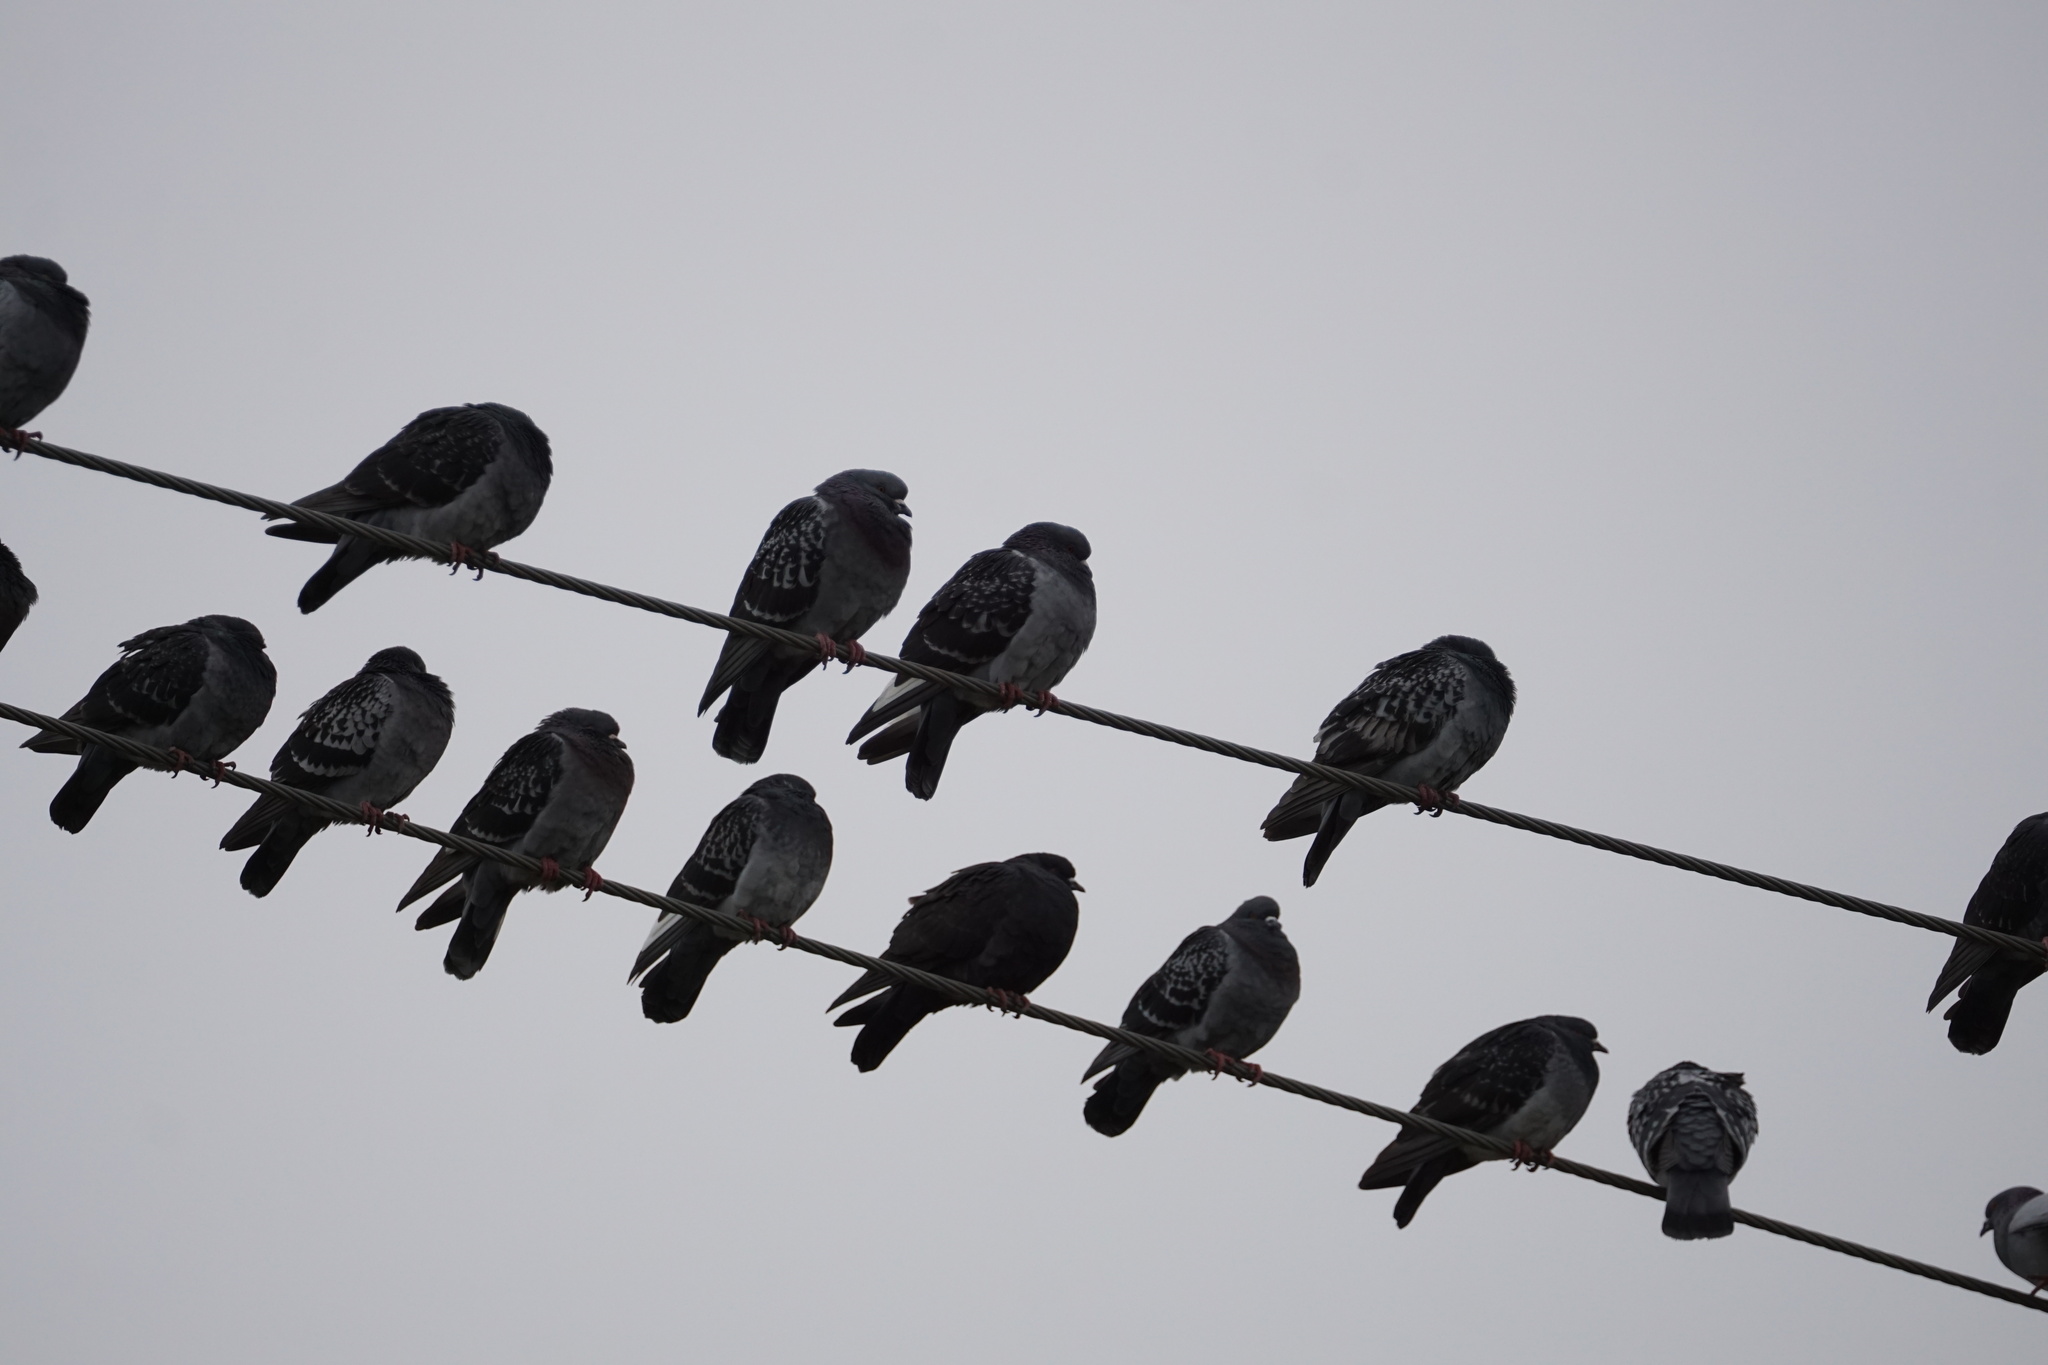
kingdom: Animalia
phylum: Chordata
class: Aves
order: Columbiformes
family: Columbidae
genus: Columba
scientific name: Columba livia
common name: Rock pigeon
